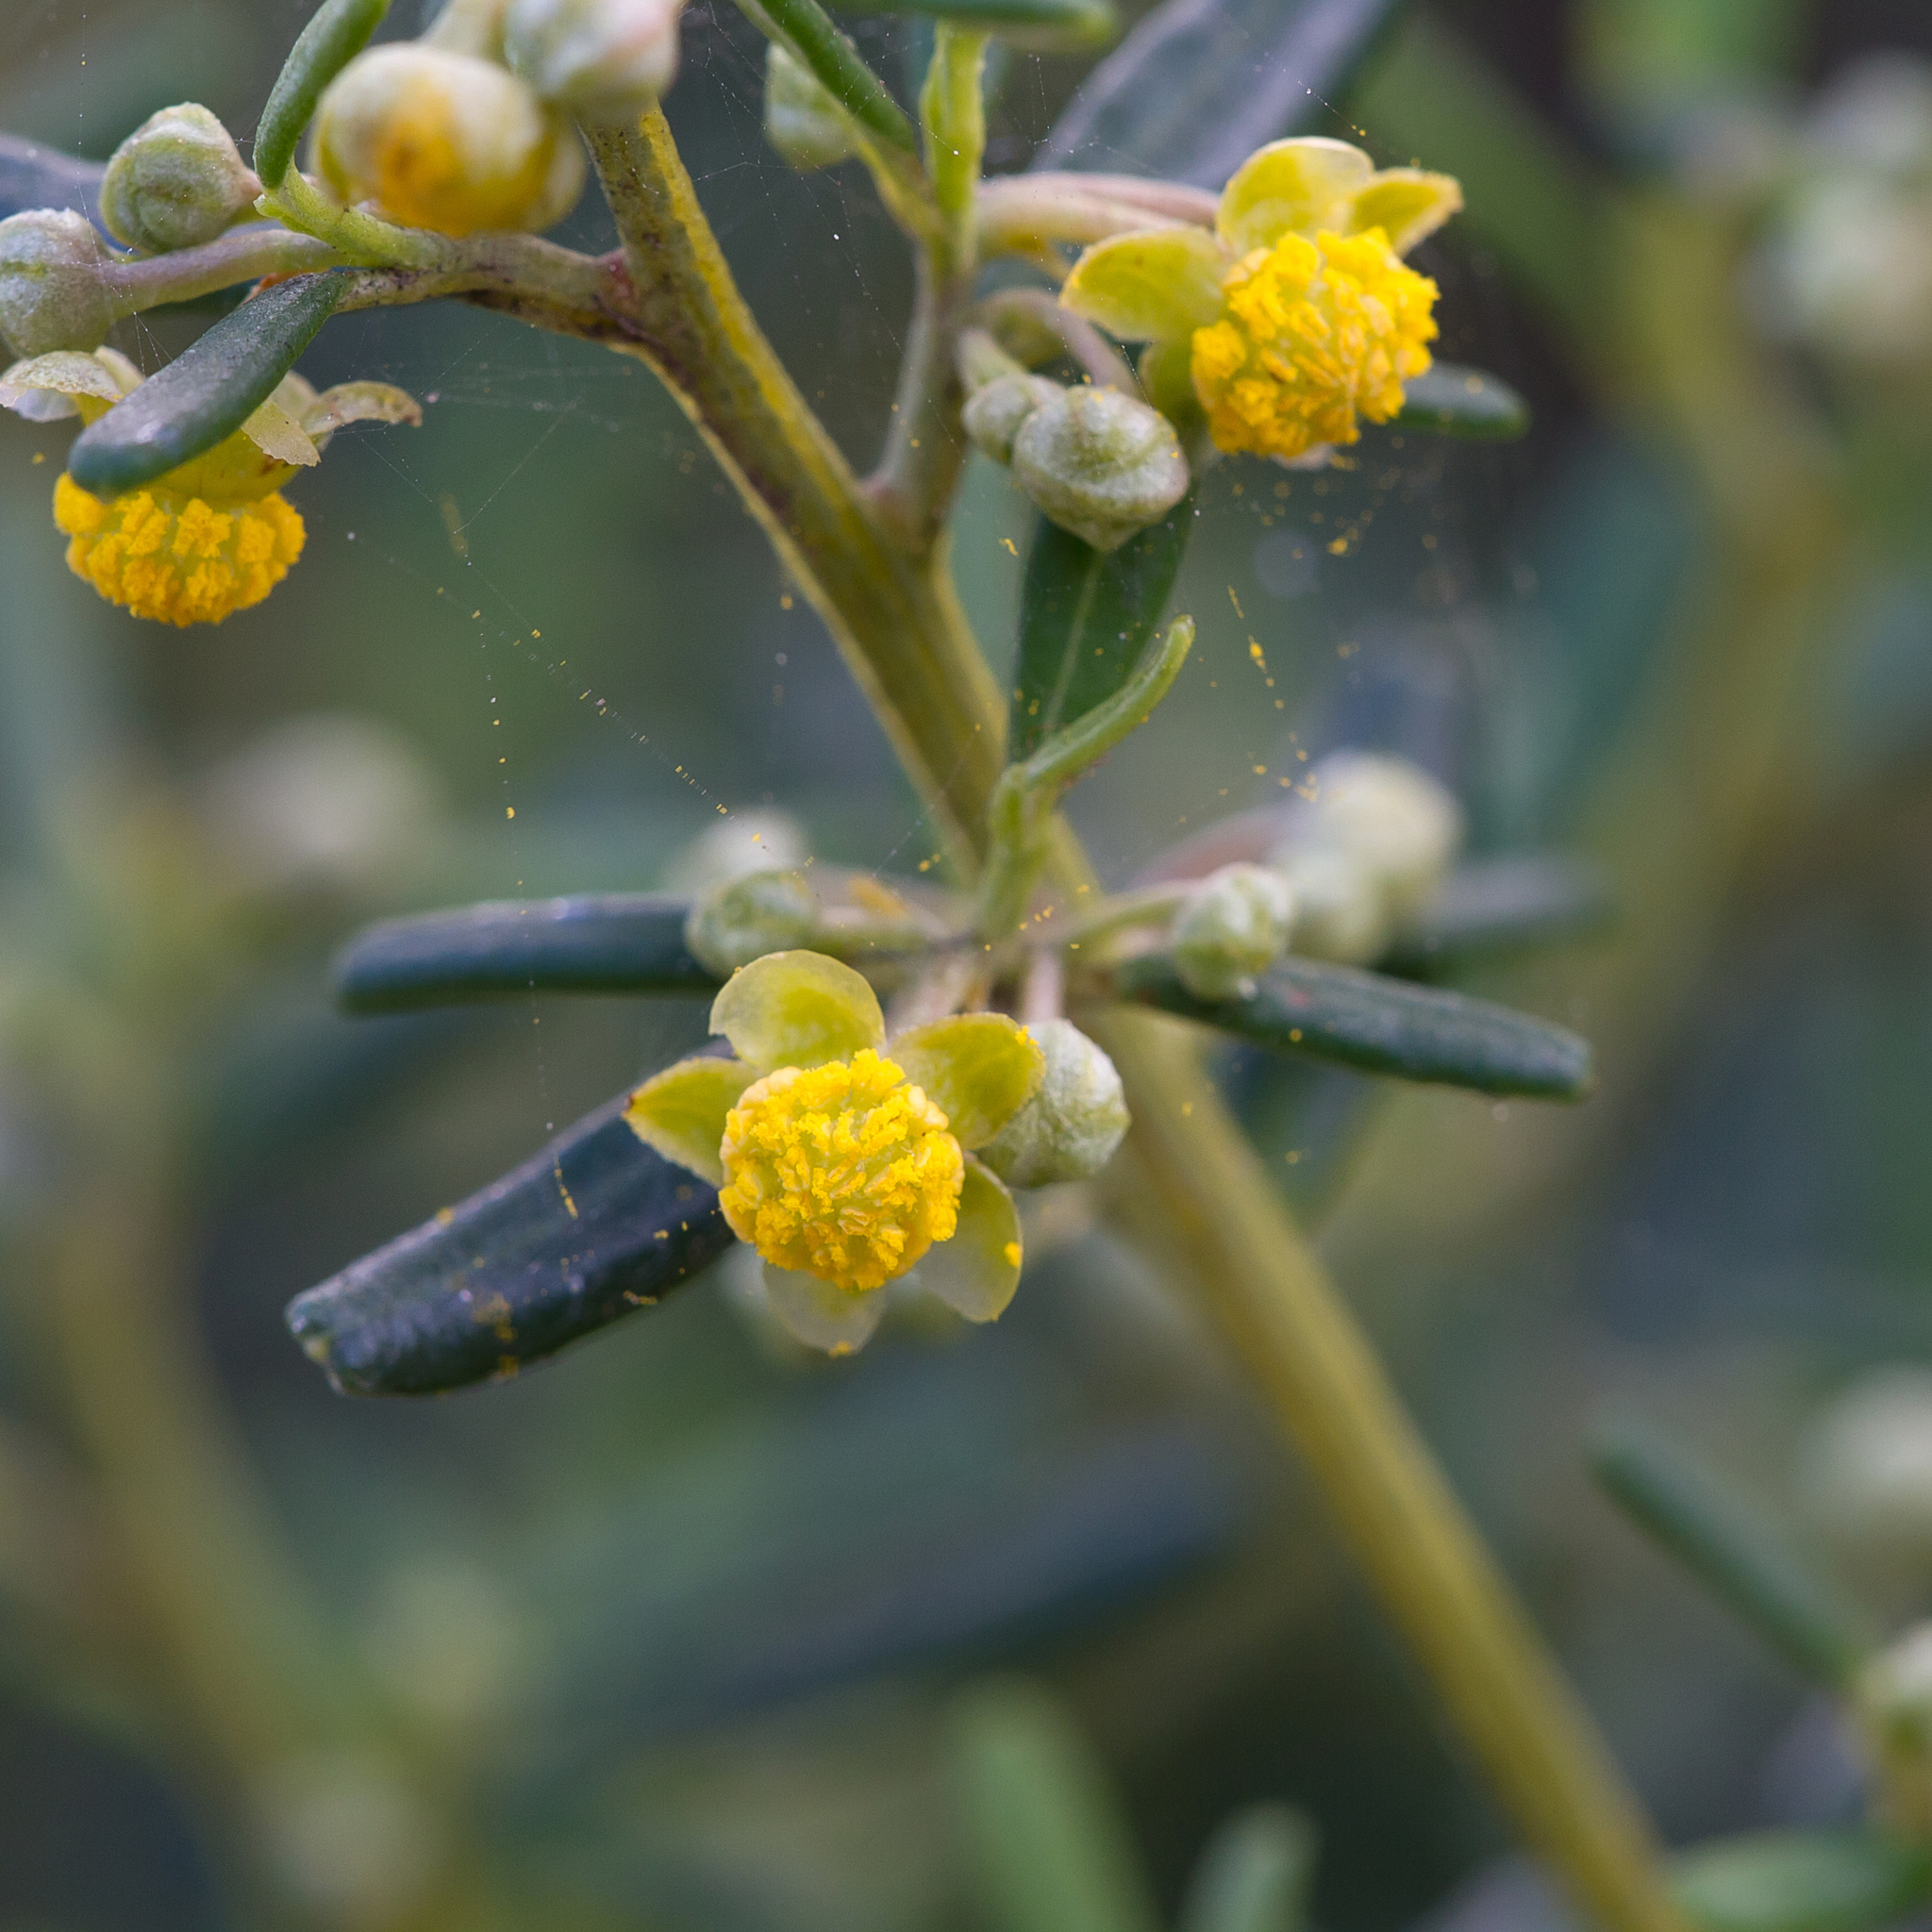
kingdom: Plantae
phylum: Tracheophyta
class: Magnoliopsida
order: Malpighiales
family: Euphorbiaceae
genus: Beyeria
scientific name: Beyeria lechenaultii
